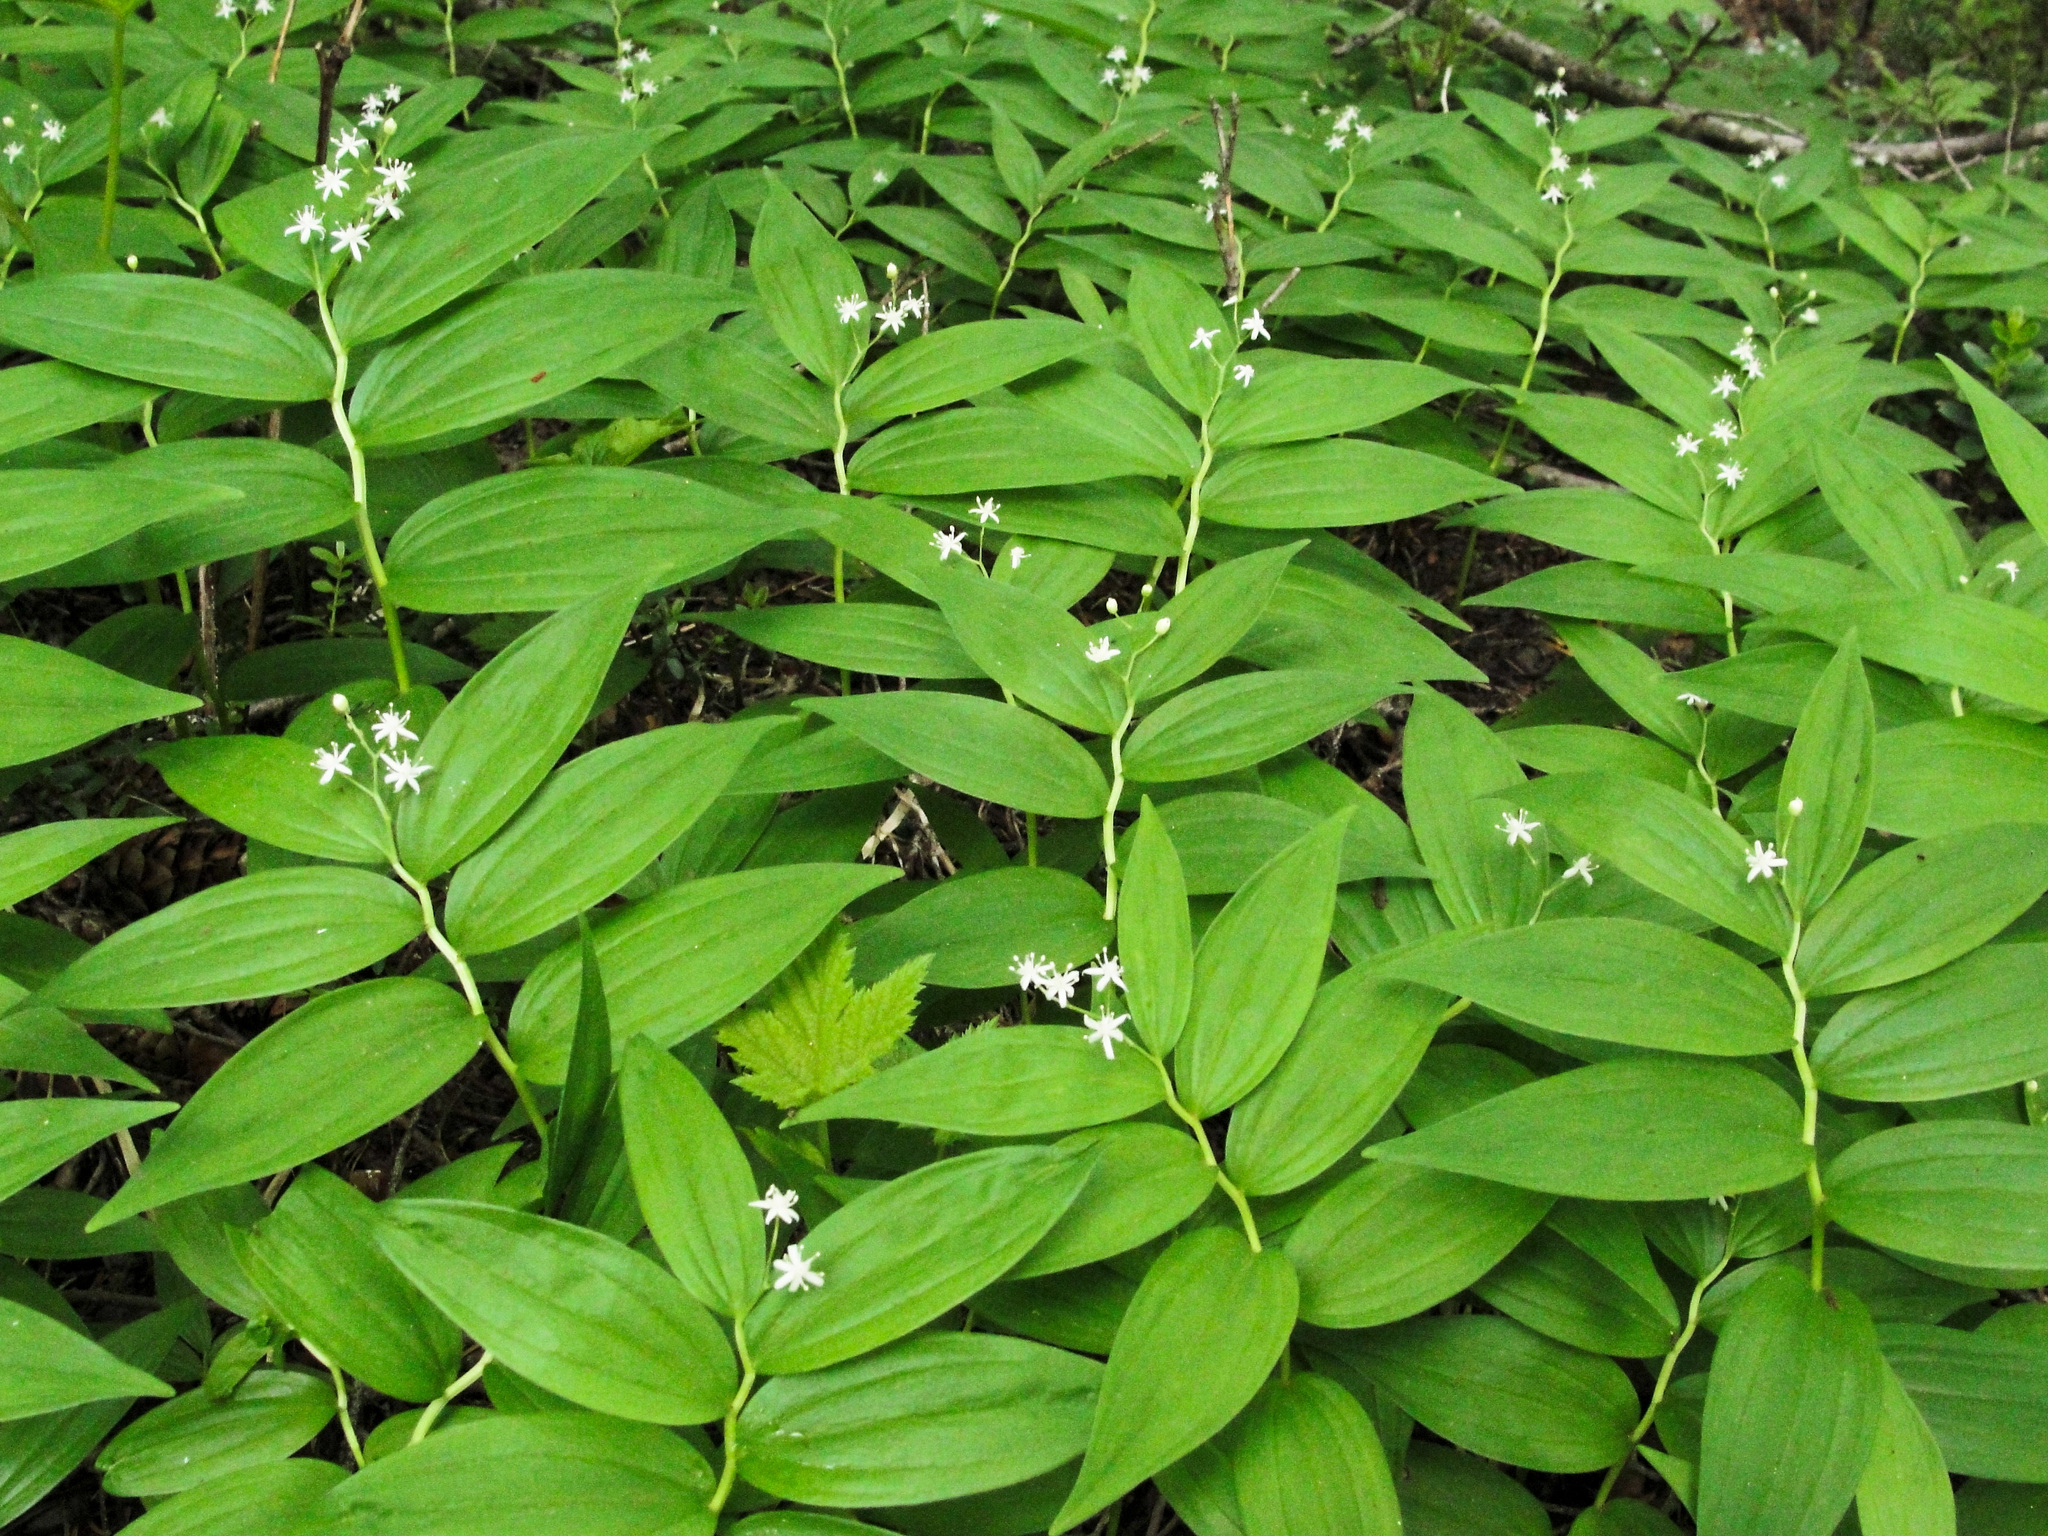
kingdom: Plantae
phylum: Tracheophyta
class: Liliopsida
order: Asparagales
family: Asparagaceae
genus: Maianthemum
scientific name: Maianthemum stellatum
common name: Little false solomon's seal
